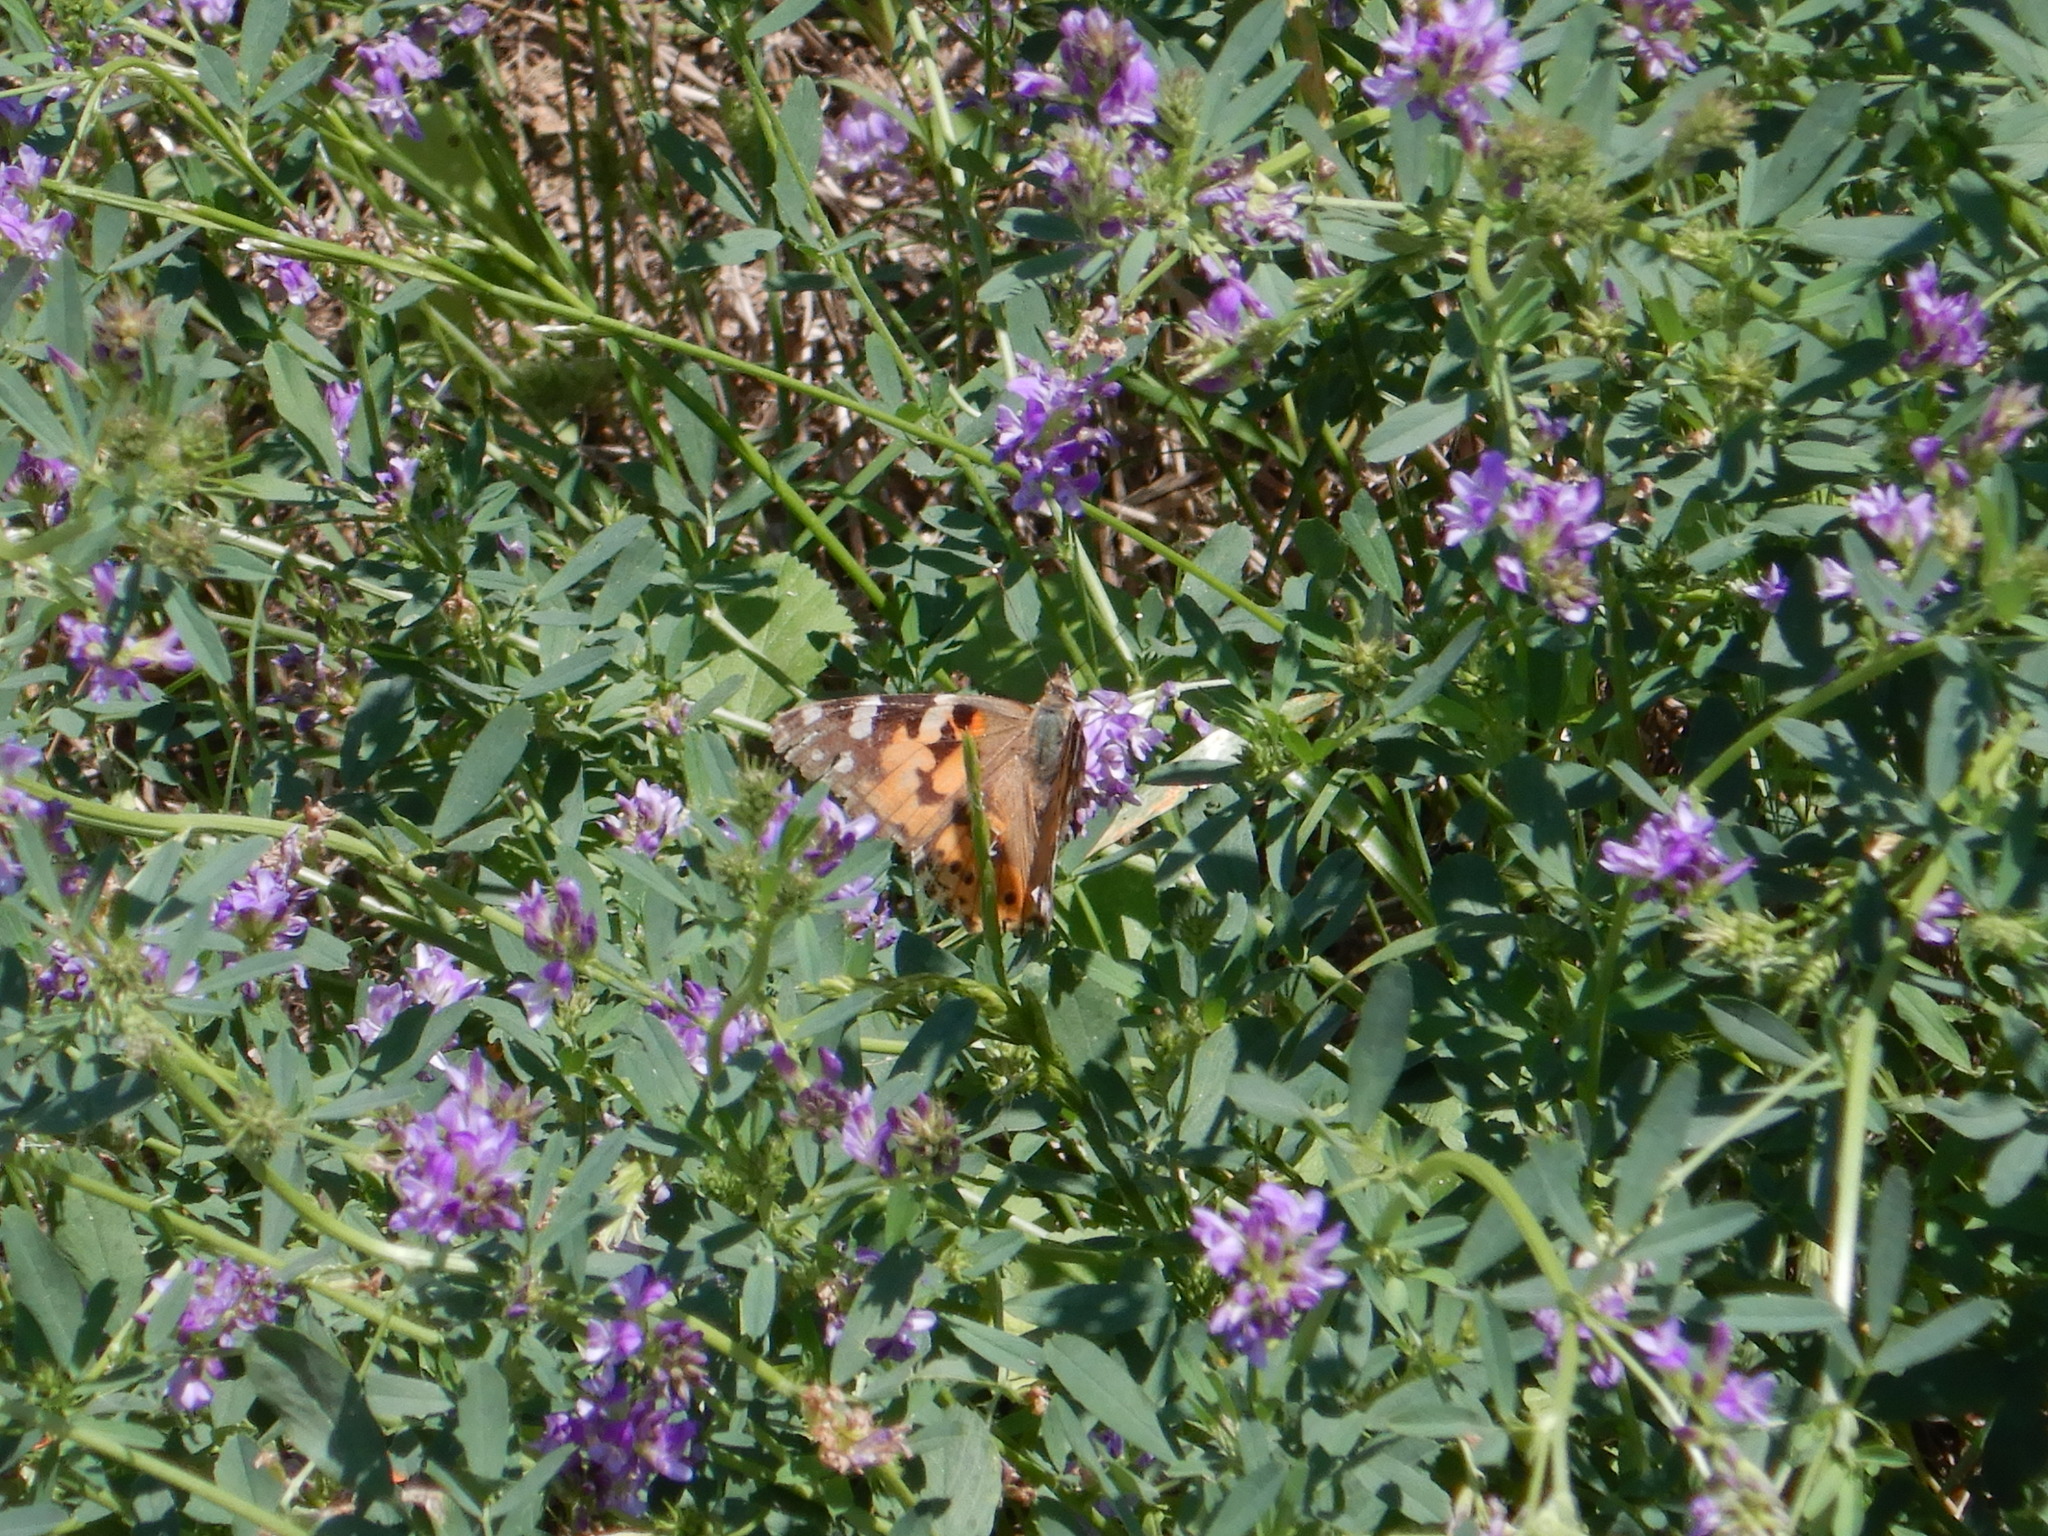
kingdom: Animalia
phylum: Arthropoda
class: Insecta
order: Lepidoptera
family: Nymphalidae
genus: Vanessa
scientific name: Vanessa cardui
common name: Painted lady
